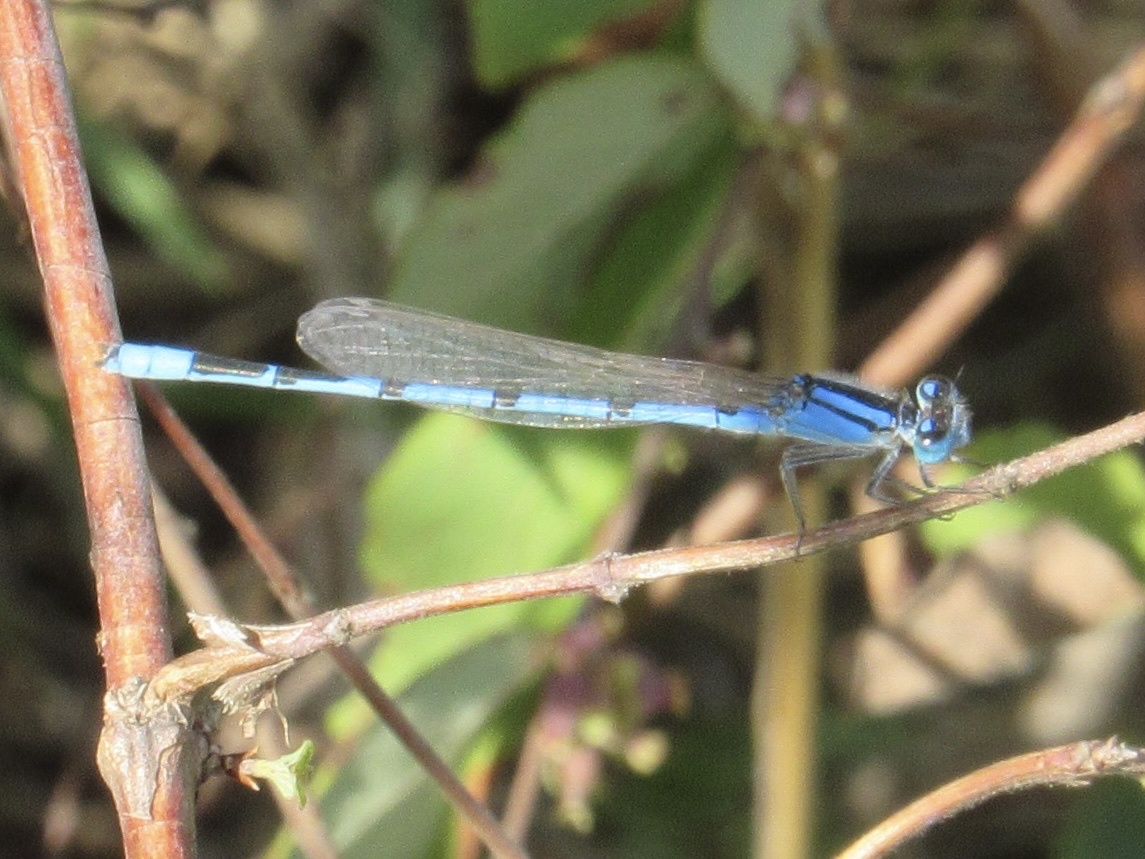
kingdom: Animalia
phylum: Arthropoda
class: Insecta
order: Odonata
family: Coenagrionidae
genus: Enallagma
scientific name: Enallagma civile
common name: Damselfly
